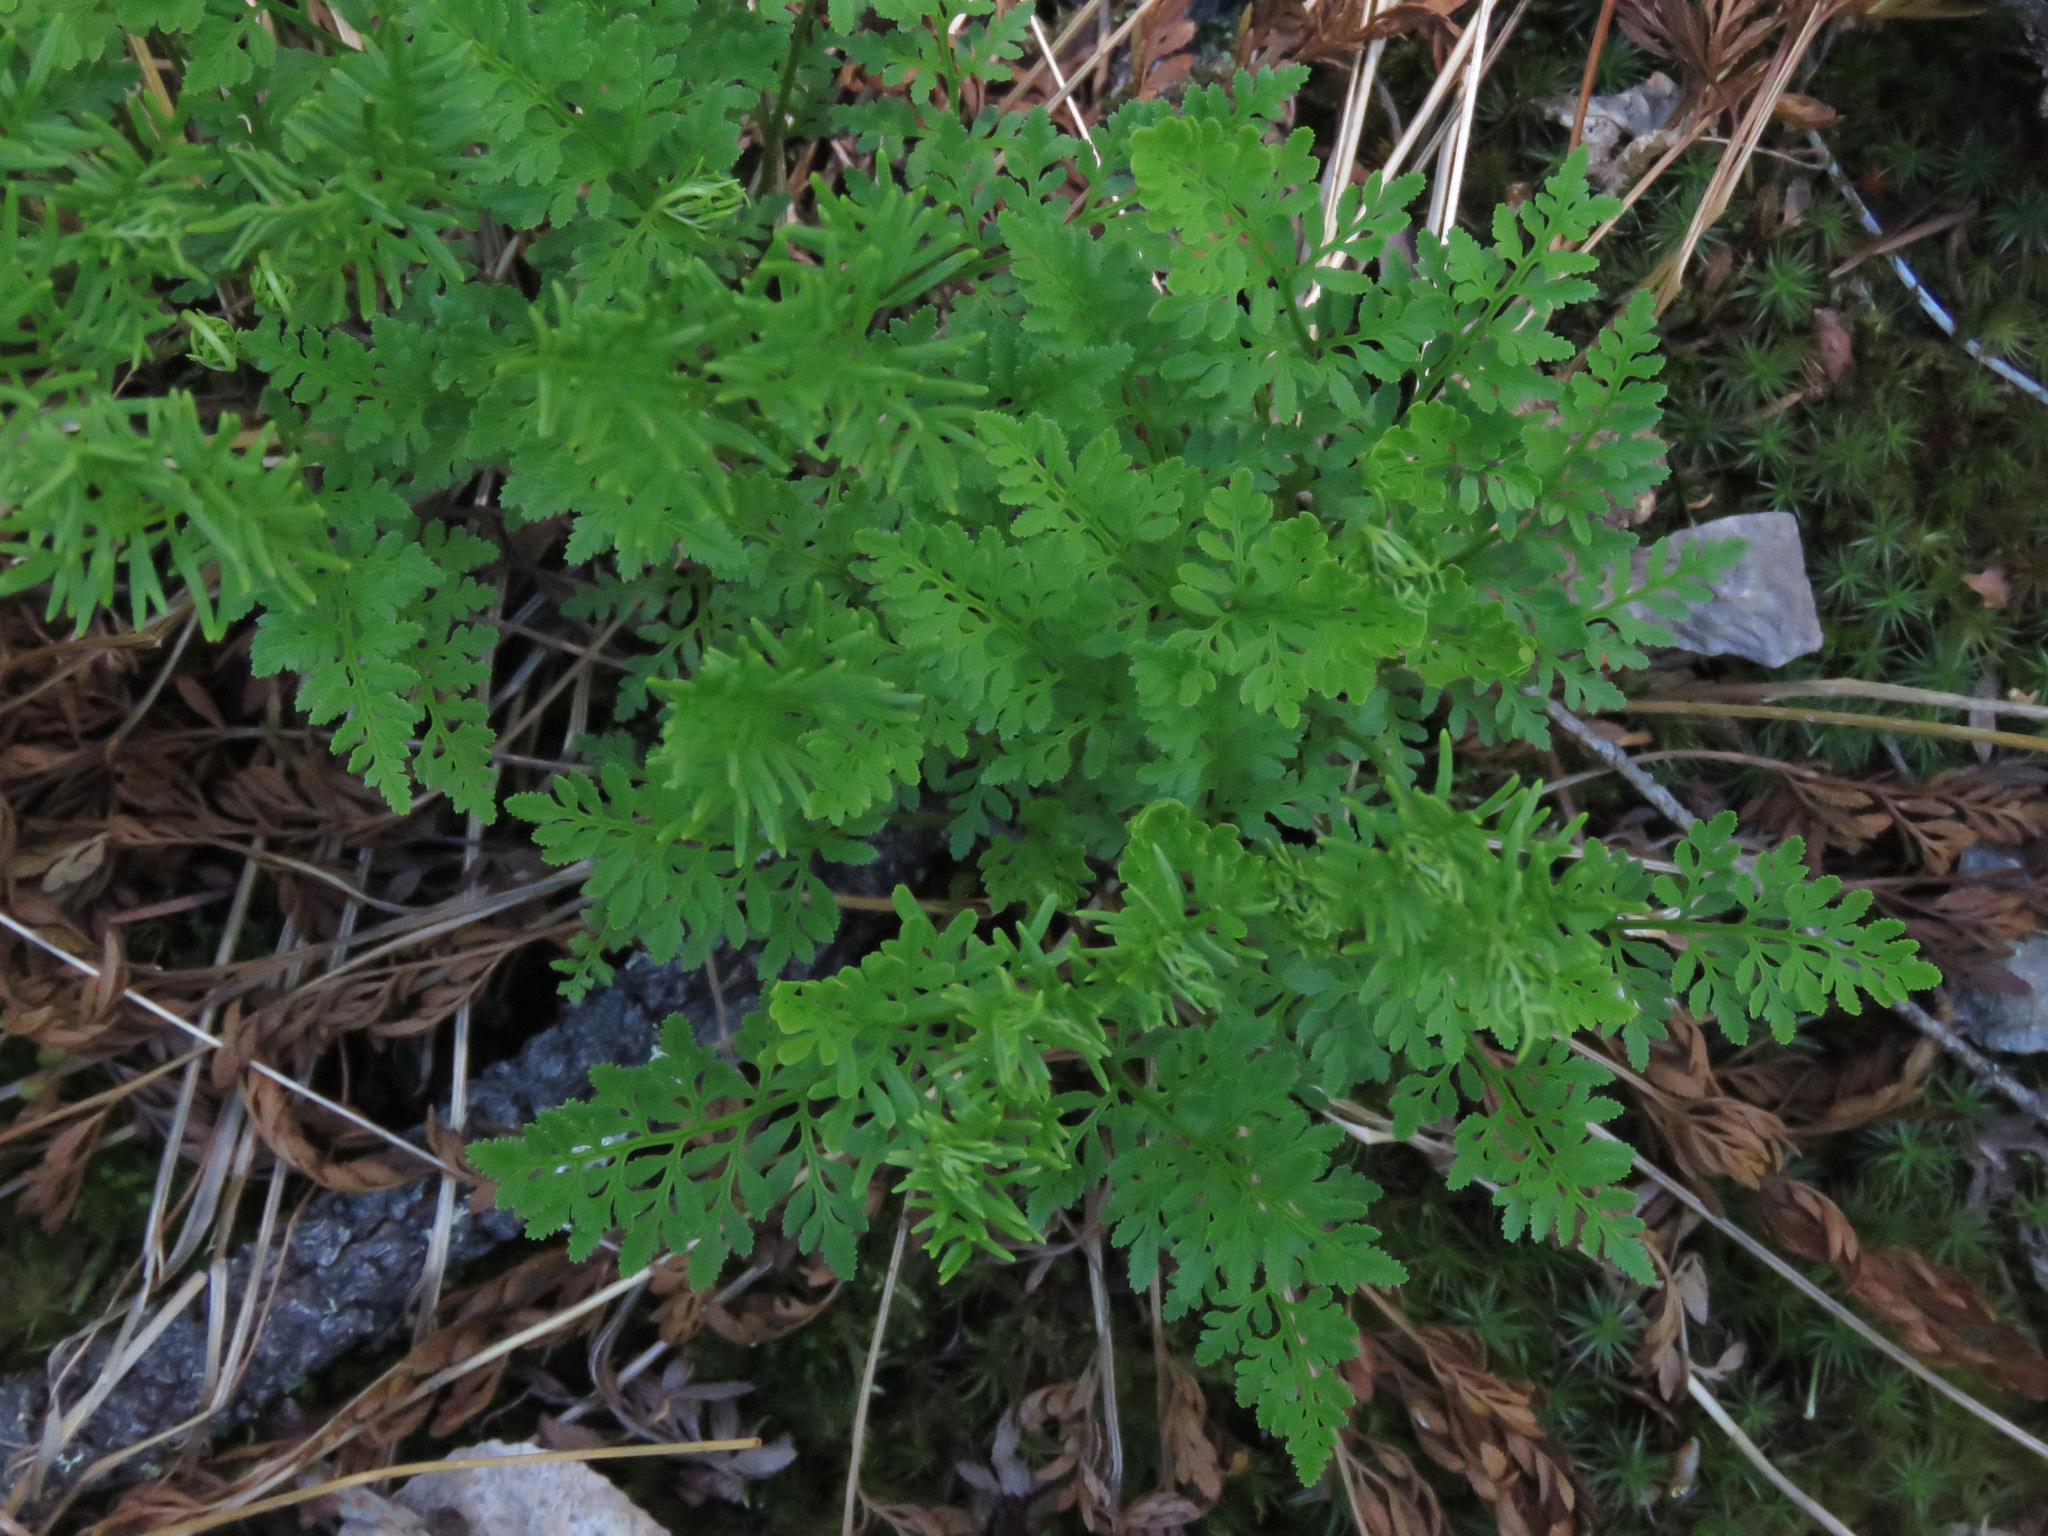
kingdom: Plantae
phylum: Tracheophyta
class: Polypodiopsida
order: Polypodiales
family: Pteridaceae
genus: Cryptogramma
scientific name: Cryptogramma acrostichoides
